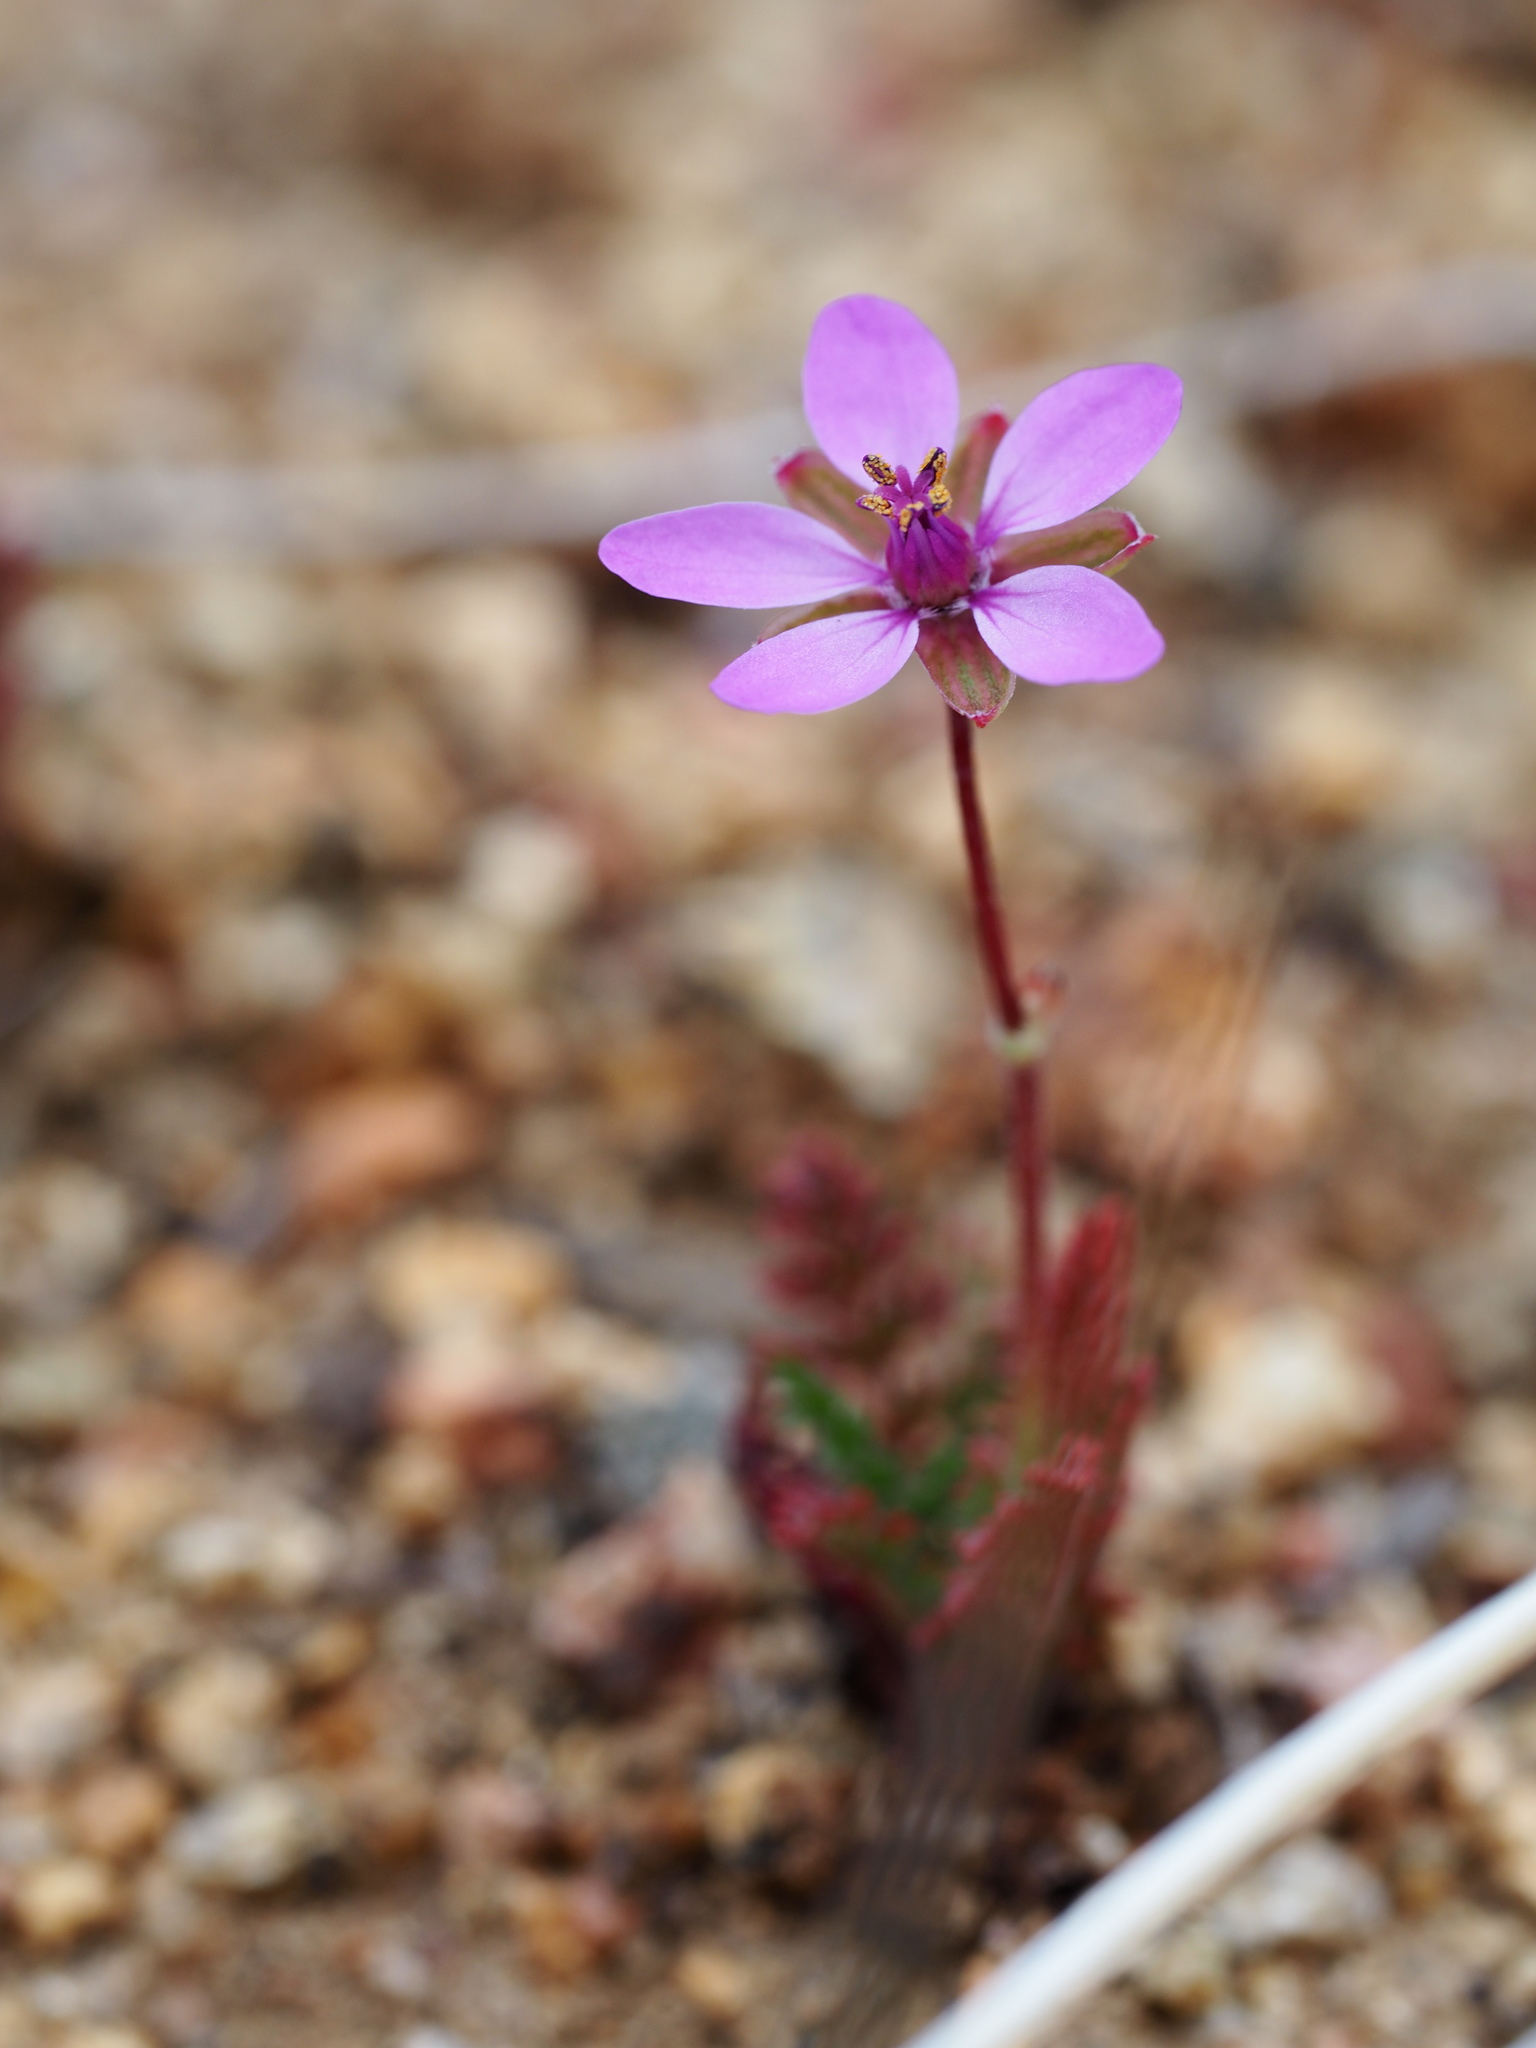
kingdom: Plantae
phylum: Tracheophyta
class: Magnoliopsida
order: Geraniales
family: Geraniaceae
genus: Erodium
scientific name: Erodium cicutarium
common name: Common stork's-bill
